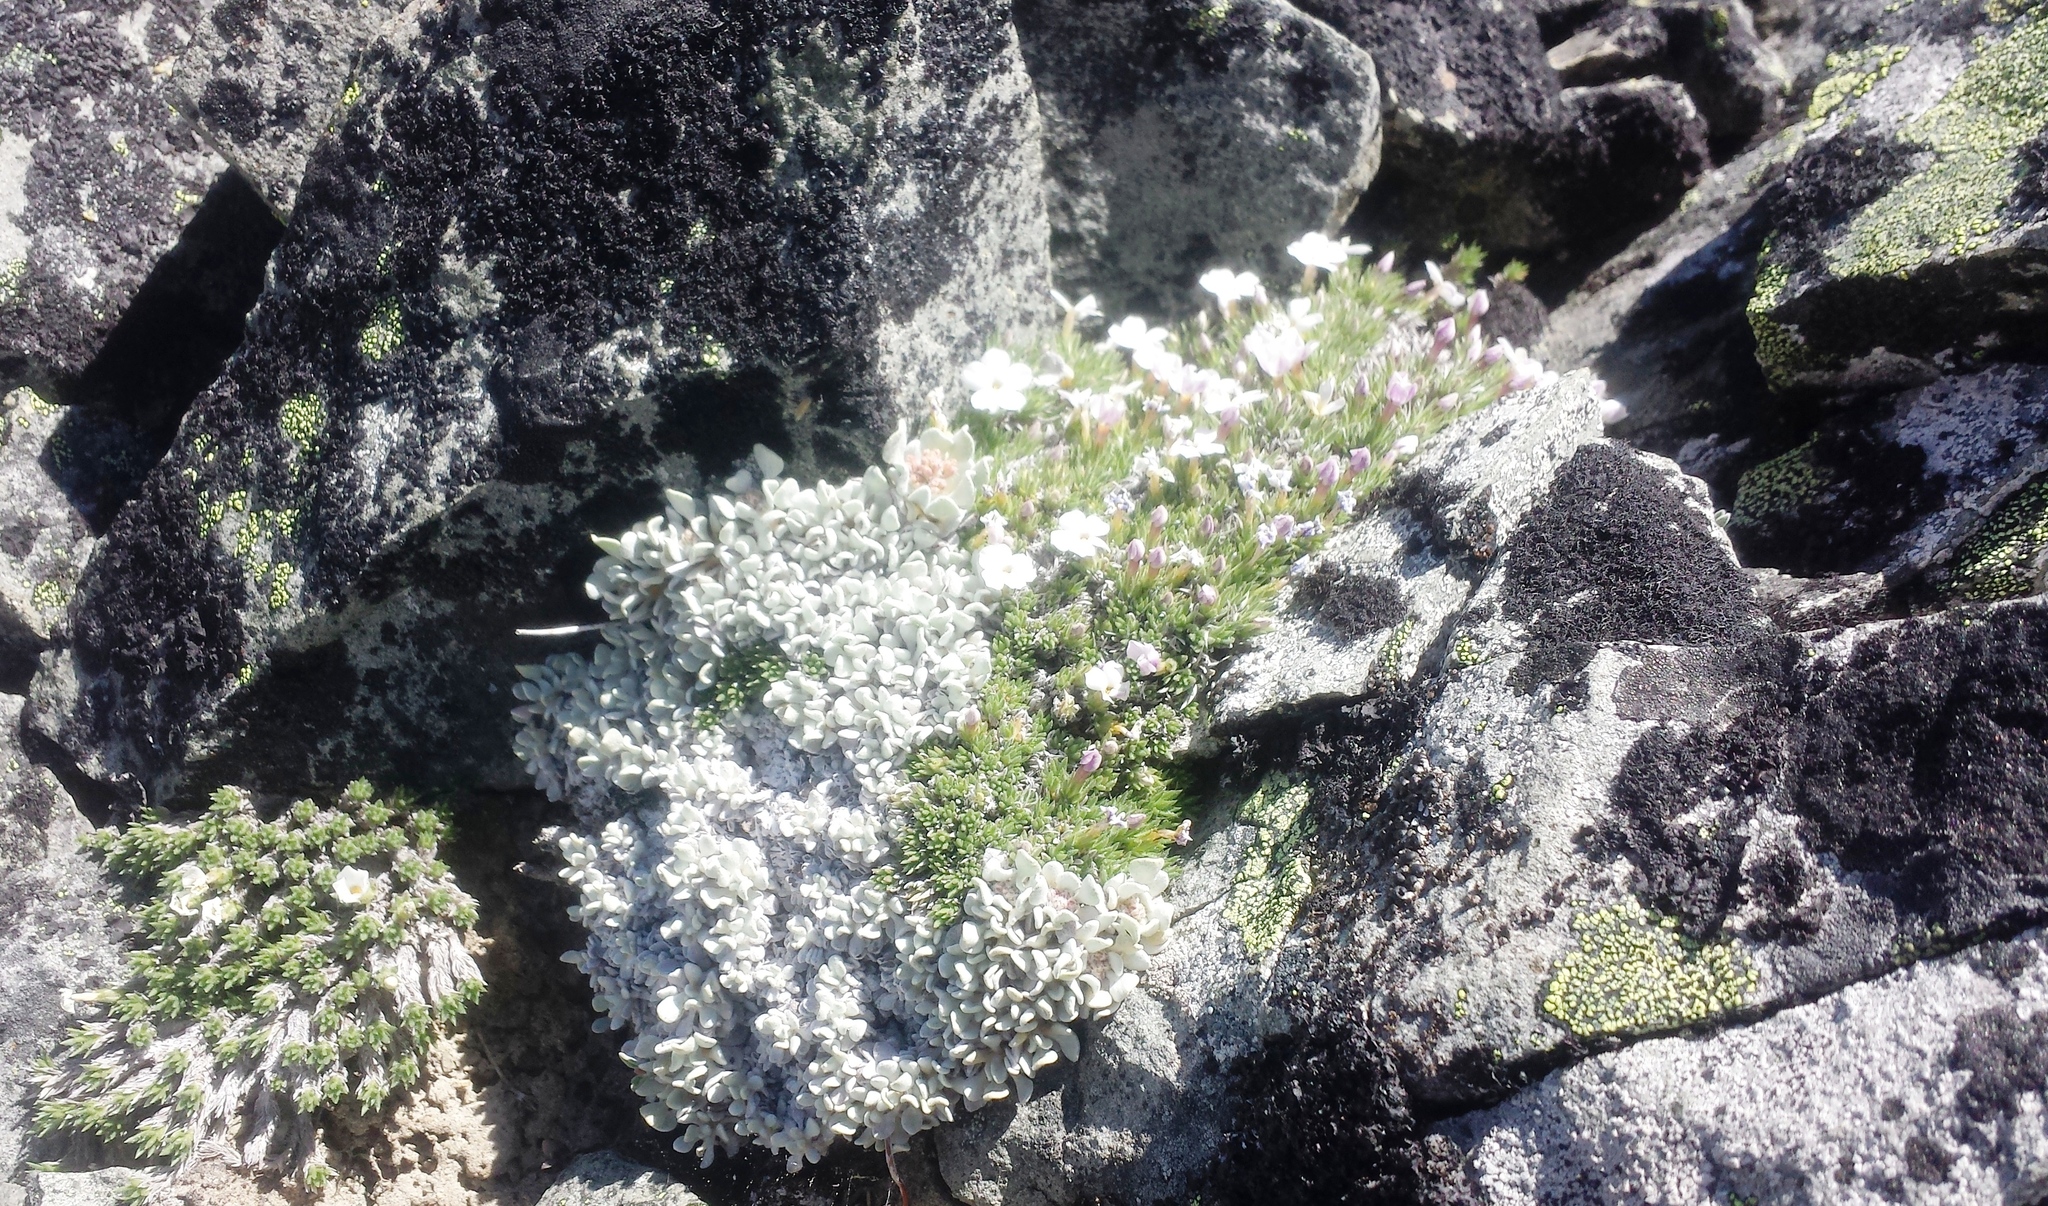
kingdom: Plantae
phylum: Tracheophyta
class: Magnoliopsida
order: Caryophyllales
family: Polygonaceae
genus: Eriogonum
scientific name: Eriogonum ovalifolium
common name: Cushion buckwheat
